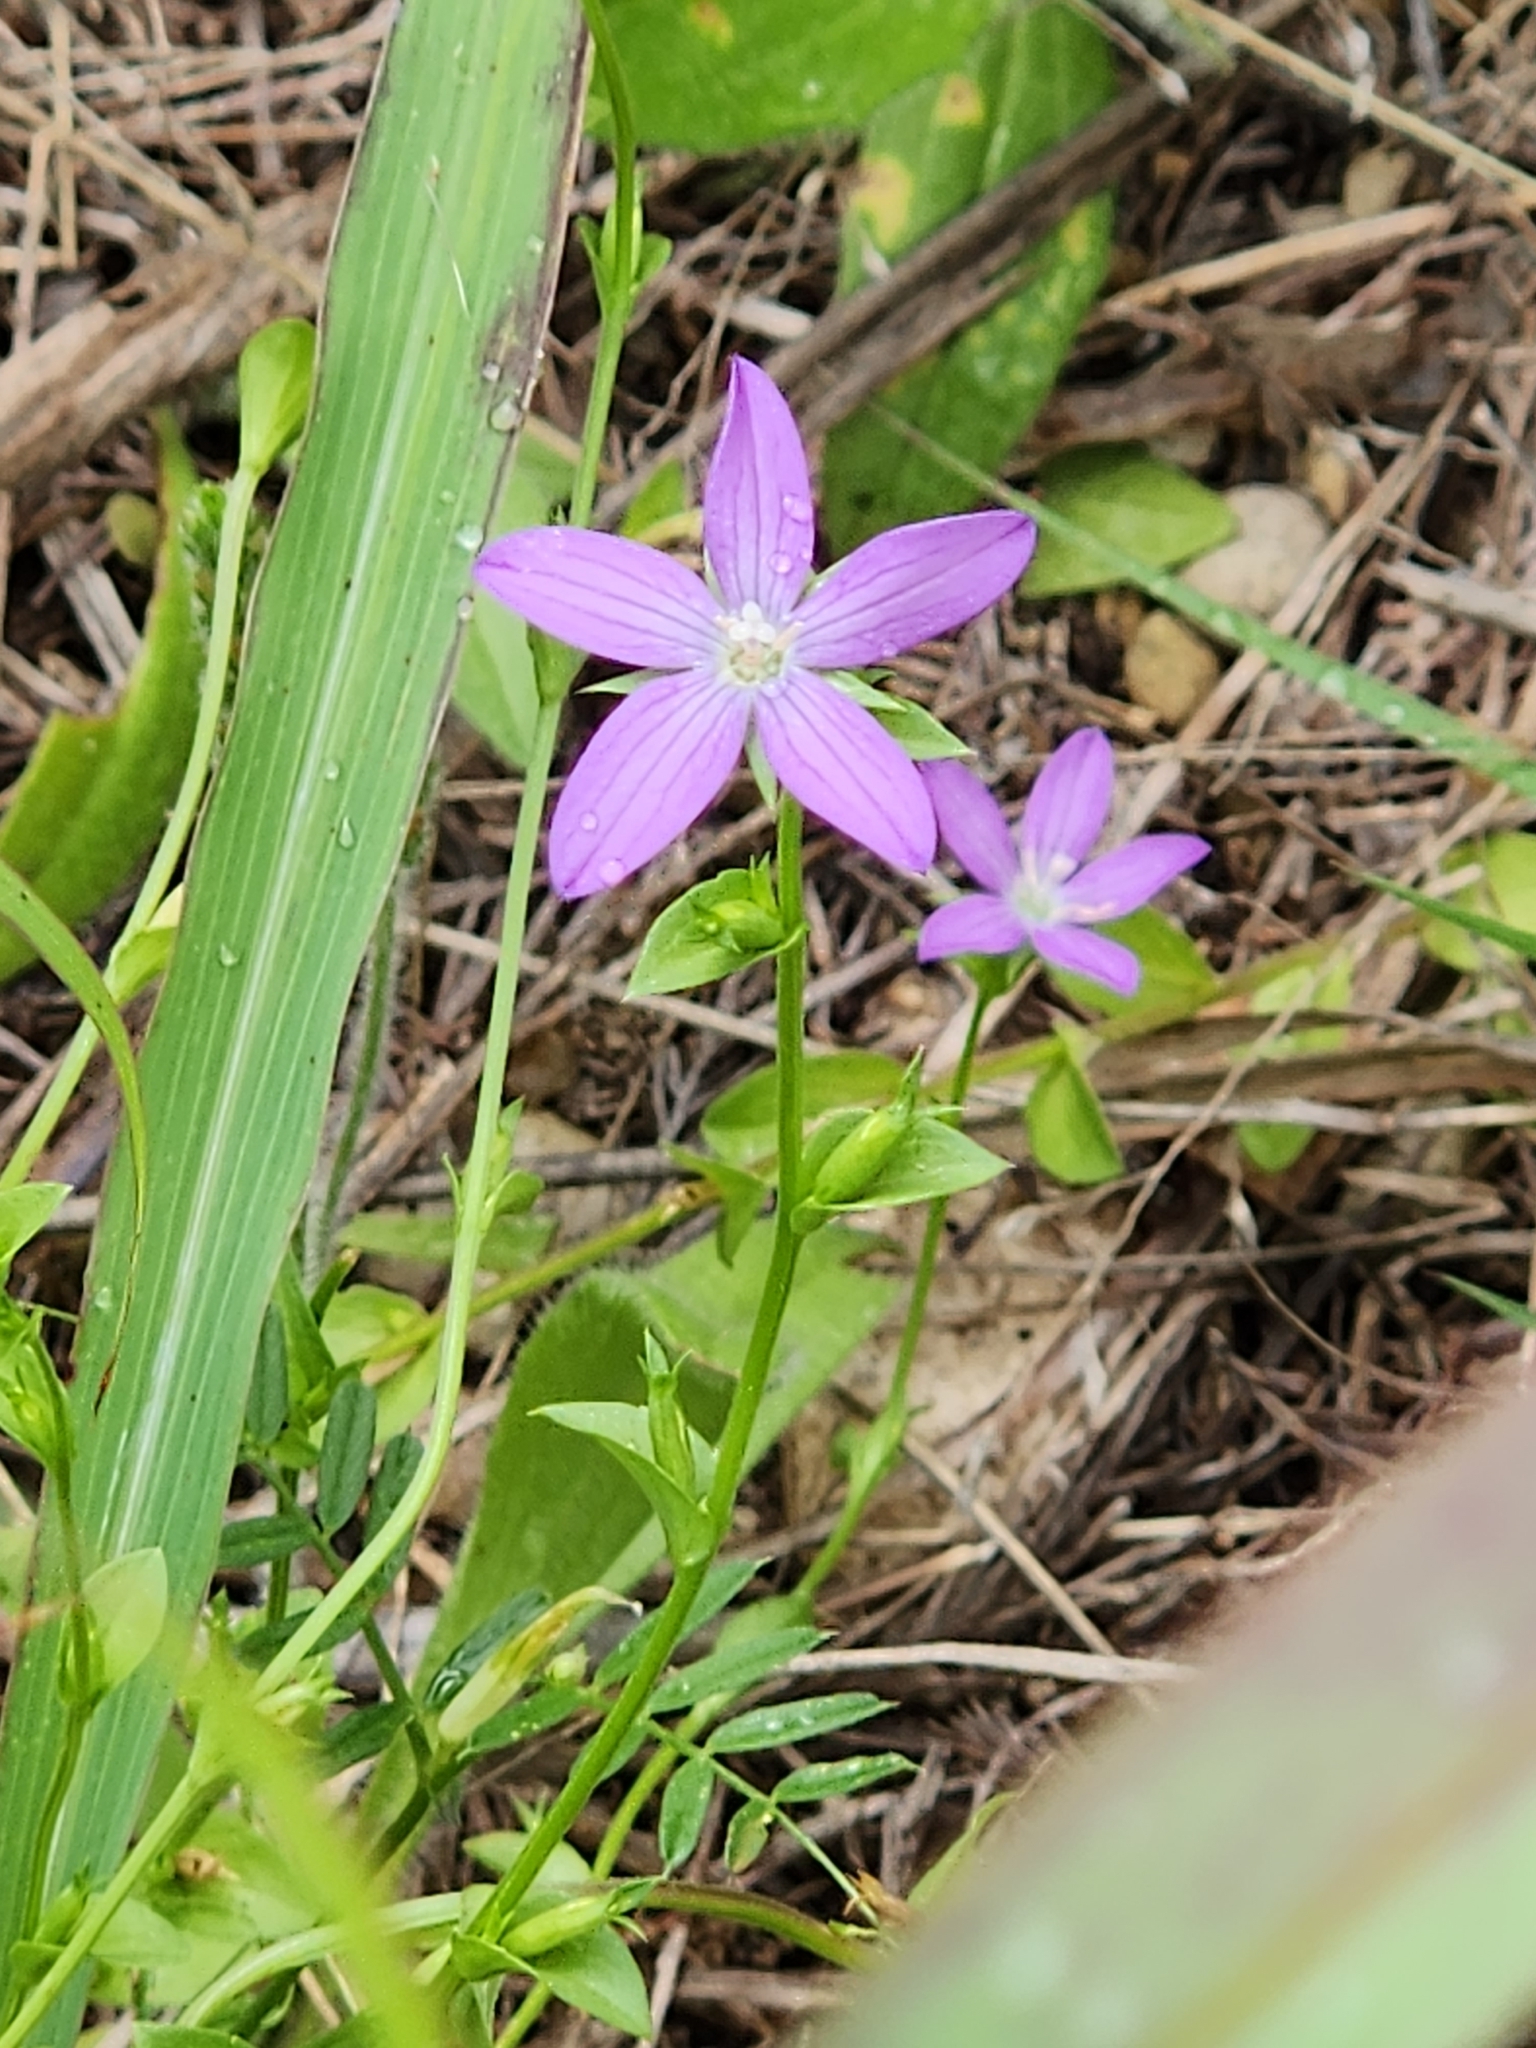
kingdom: Plantae
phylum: Tracheophyta
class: Magnoliopsida
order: Asterales
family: Campanulaceae
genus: Triodanis
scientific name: Triodanis biflora
